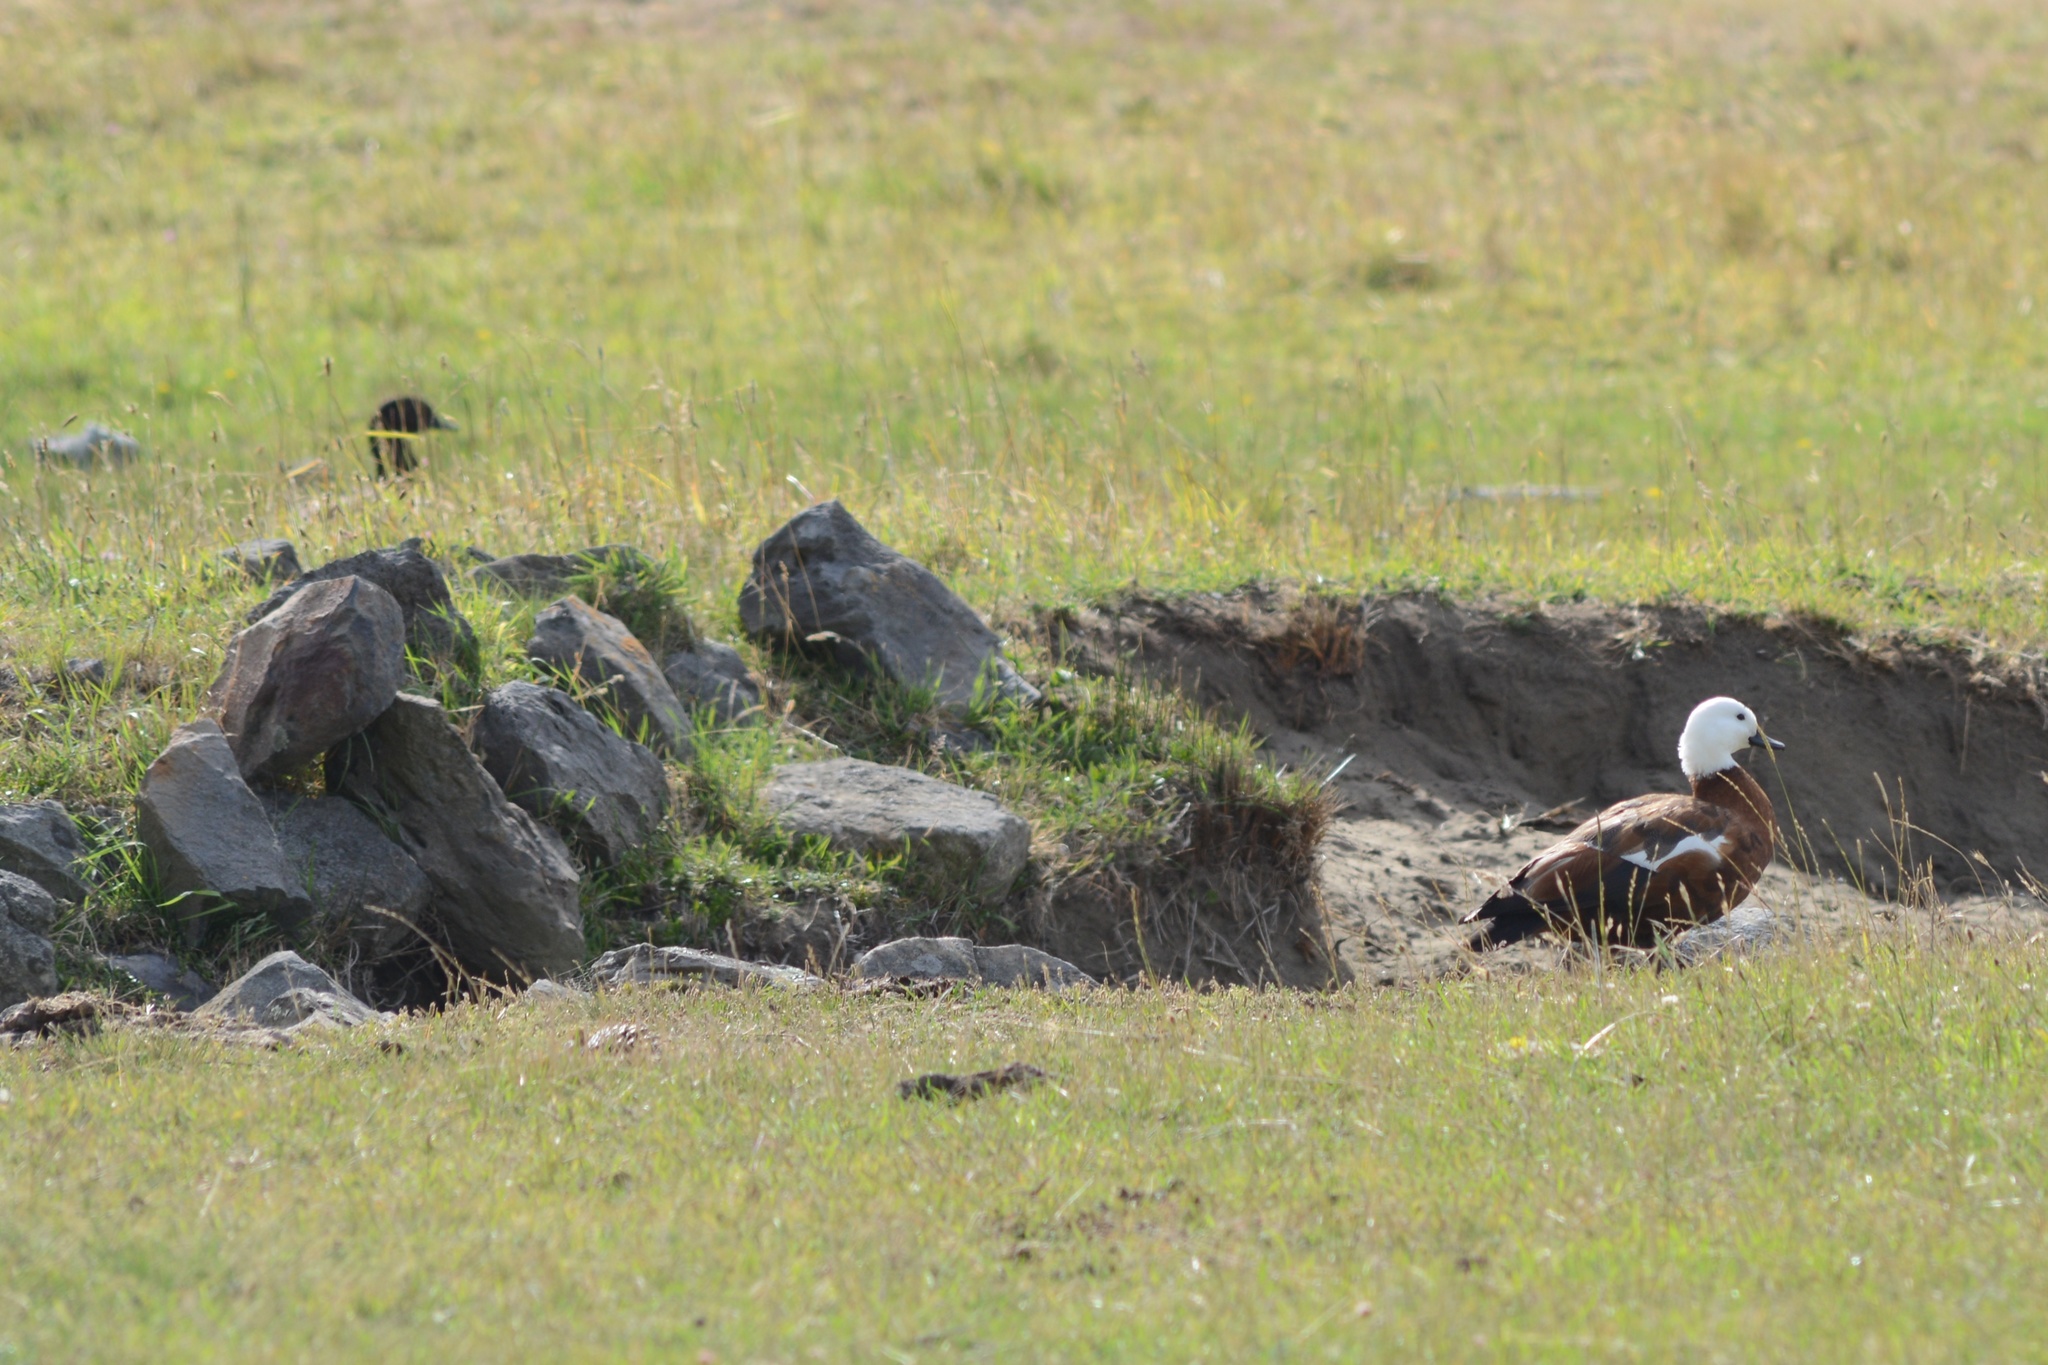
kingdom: Animalia
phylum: Chordata
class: Aves
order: Anseriformes
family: Anatidae
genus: Tadorna
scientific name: Tadorna variegata
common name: Paradise shelduck
